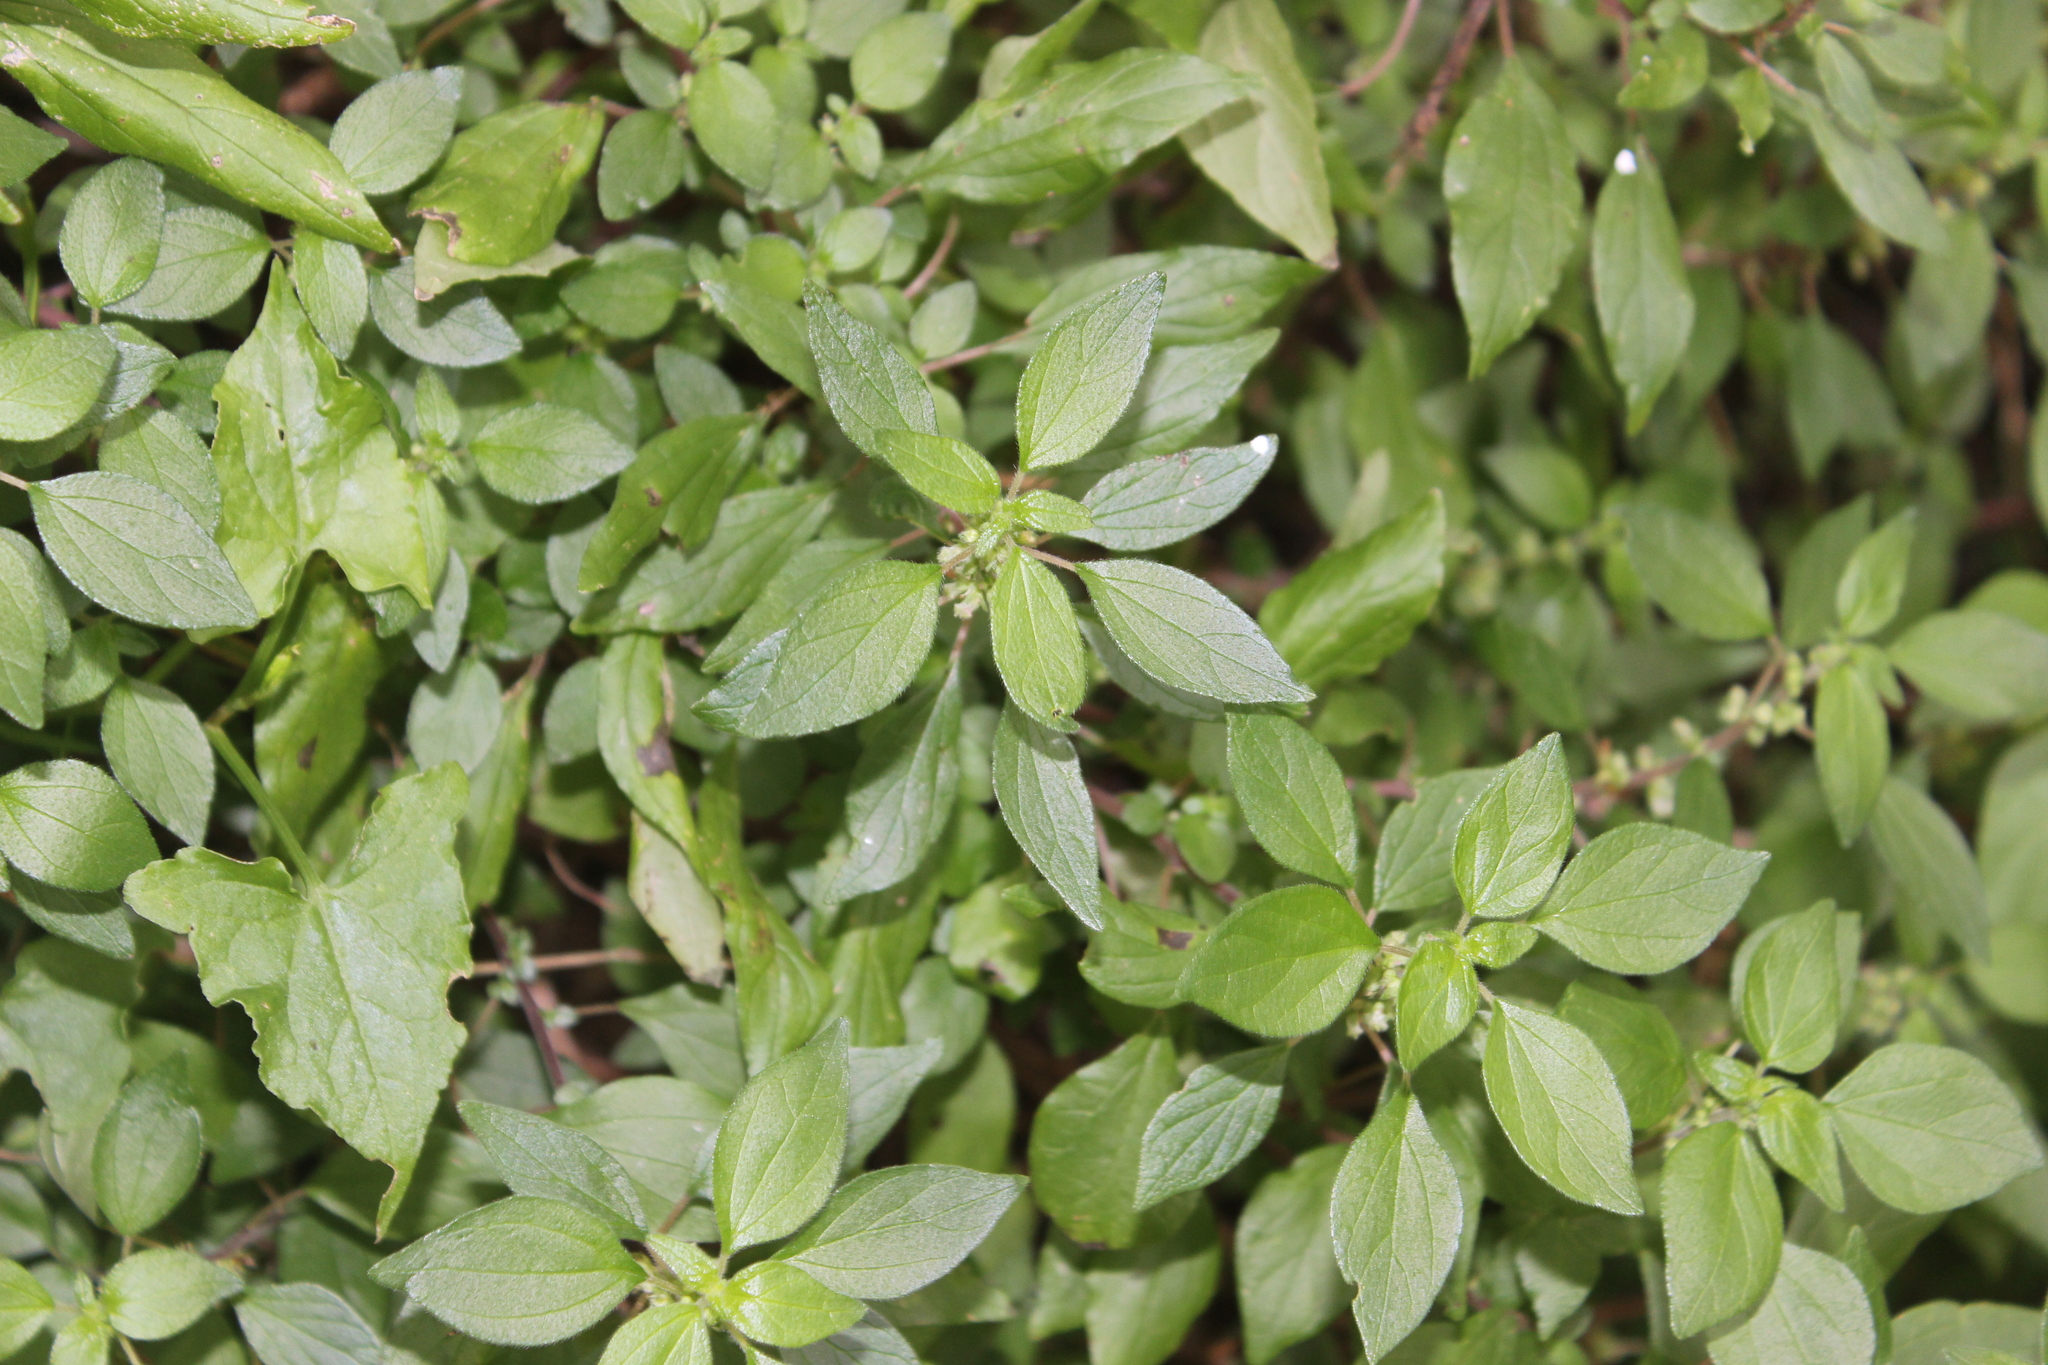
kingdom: Plantae
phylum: Tracheophyta
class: Magnoliopsida
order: Rosales
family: Urticaceae
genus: Parietaria
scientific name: Parietaria judaica
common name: Pellitory-of-the-wall
